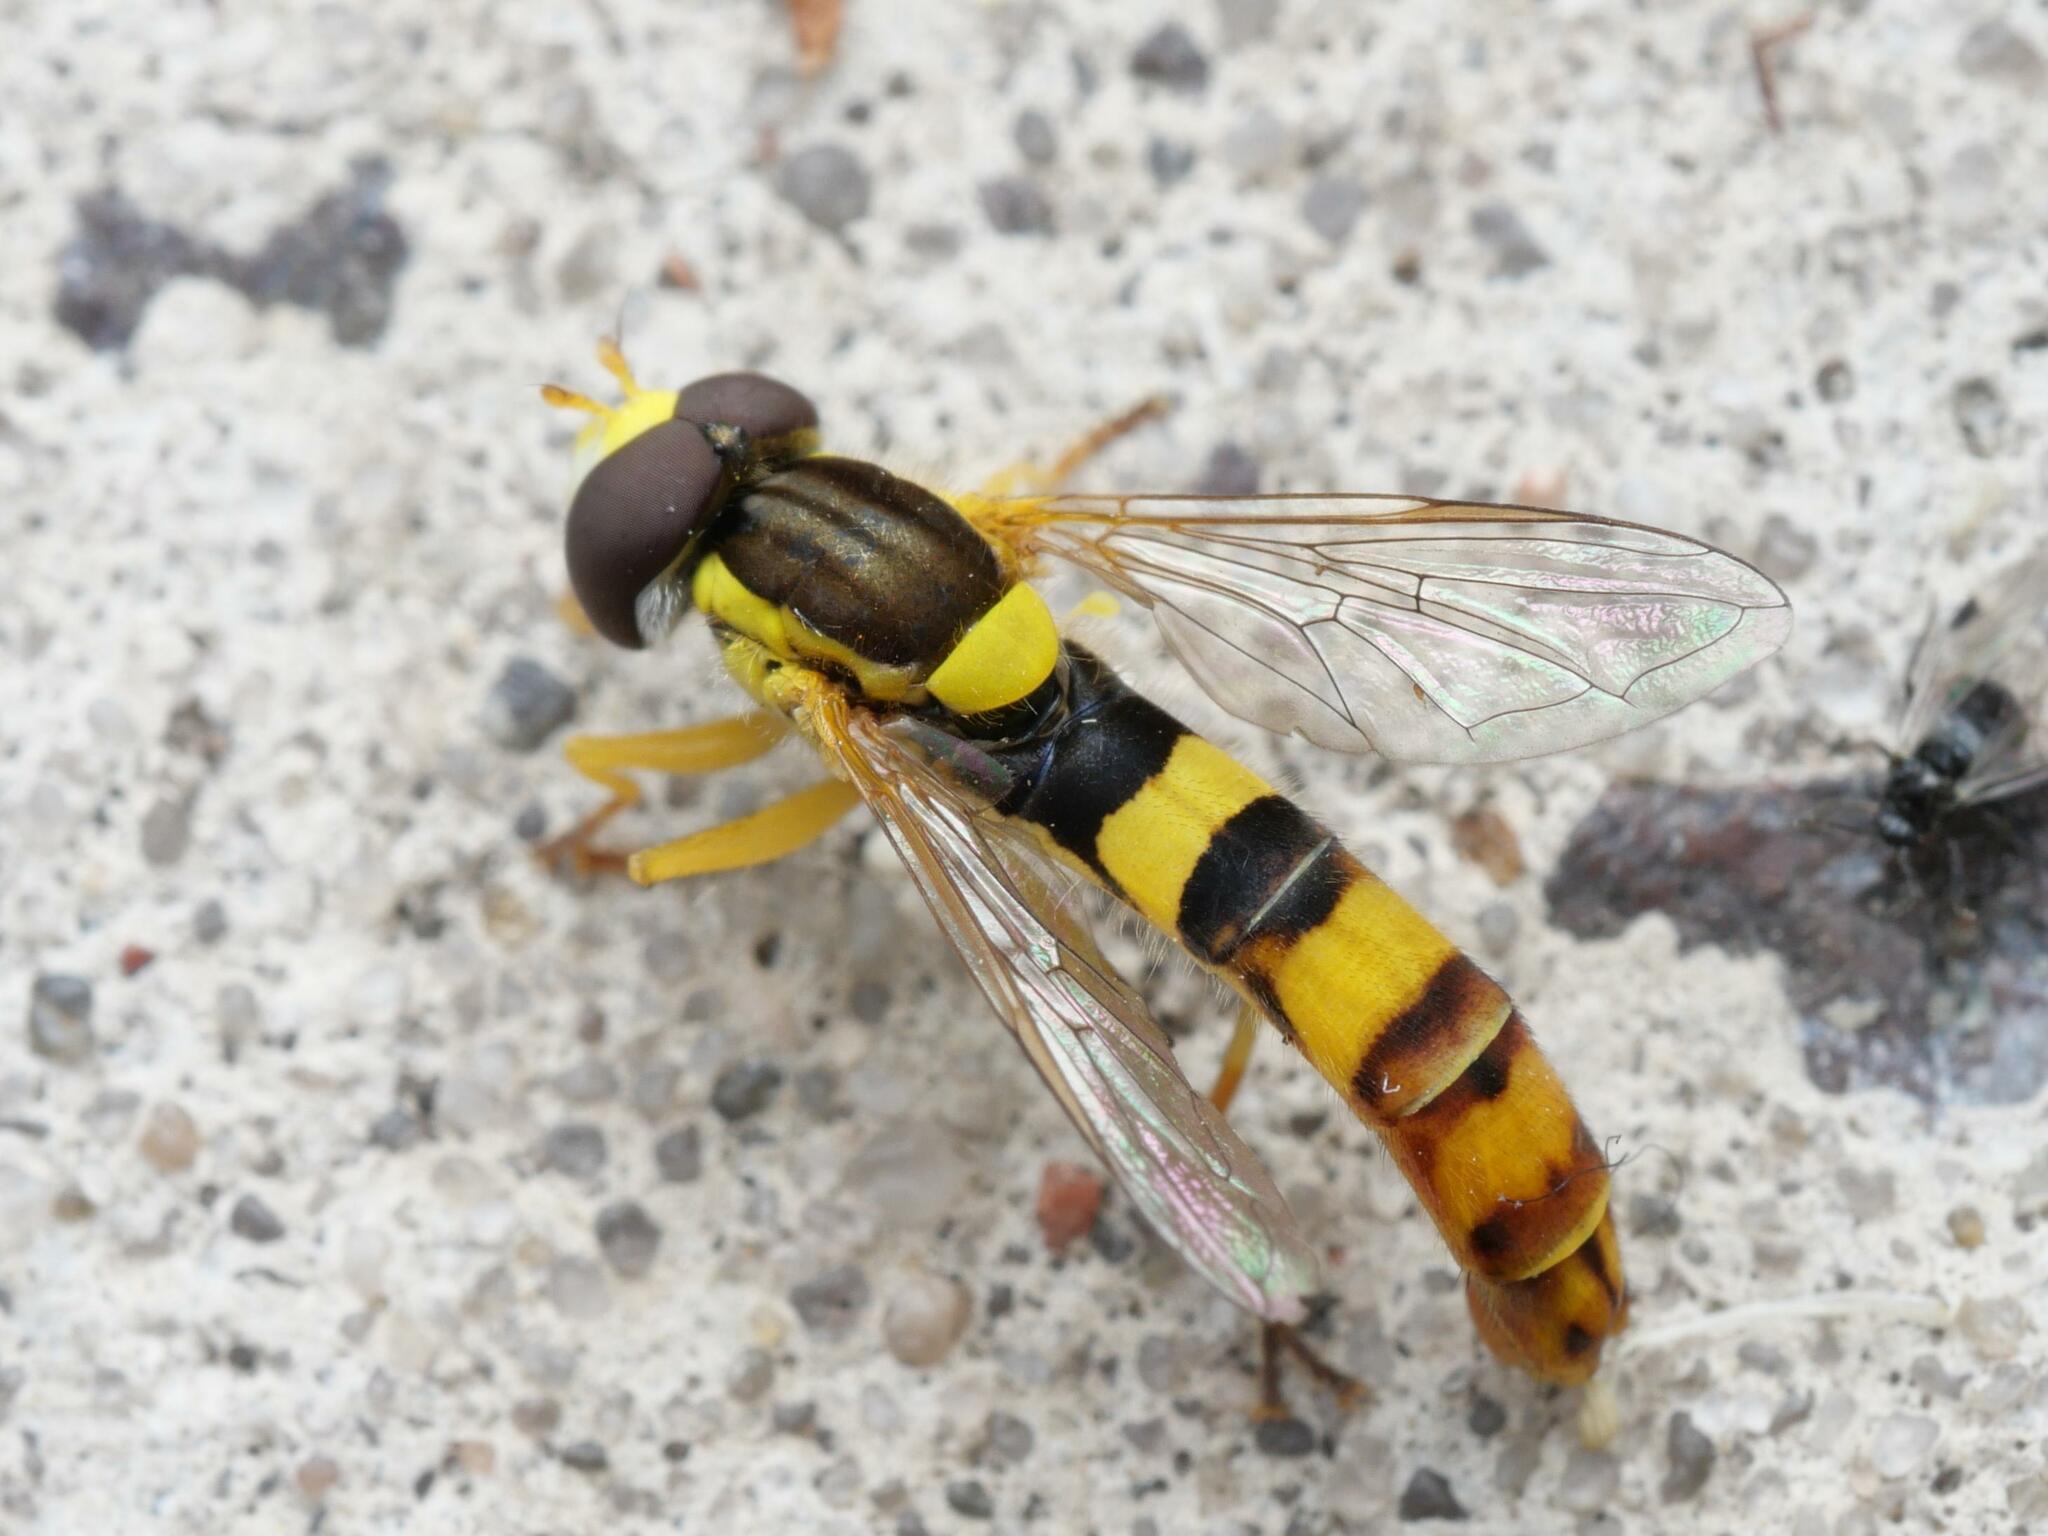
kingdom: Animalia
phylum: Arthropoda
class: Insecta
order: Diptera
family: Syrphidae
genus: Sphaerophoria
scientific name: Sphaerophoria scripta
